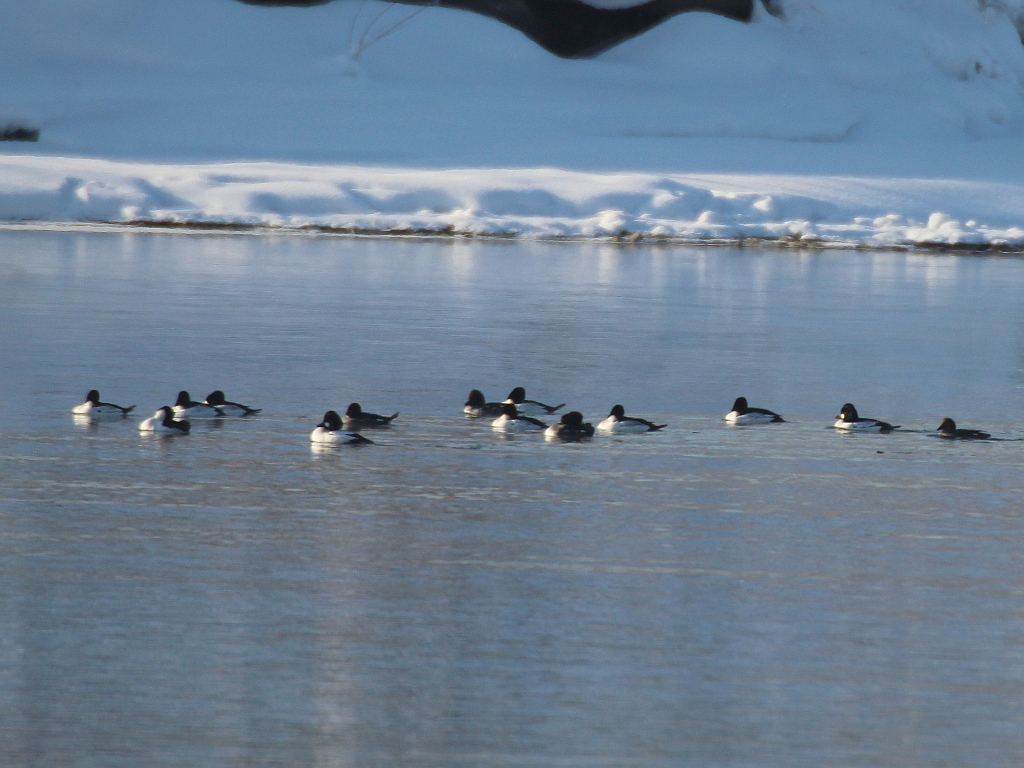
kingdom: Animalia
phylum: Chordata
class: Aves
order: Anseriformes
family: Anatidae
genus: Bucephala
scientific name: Bucephala clangula
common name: Common goldeneye
